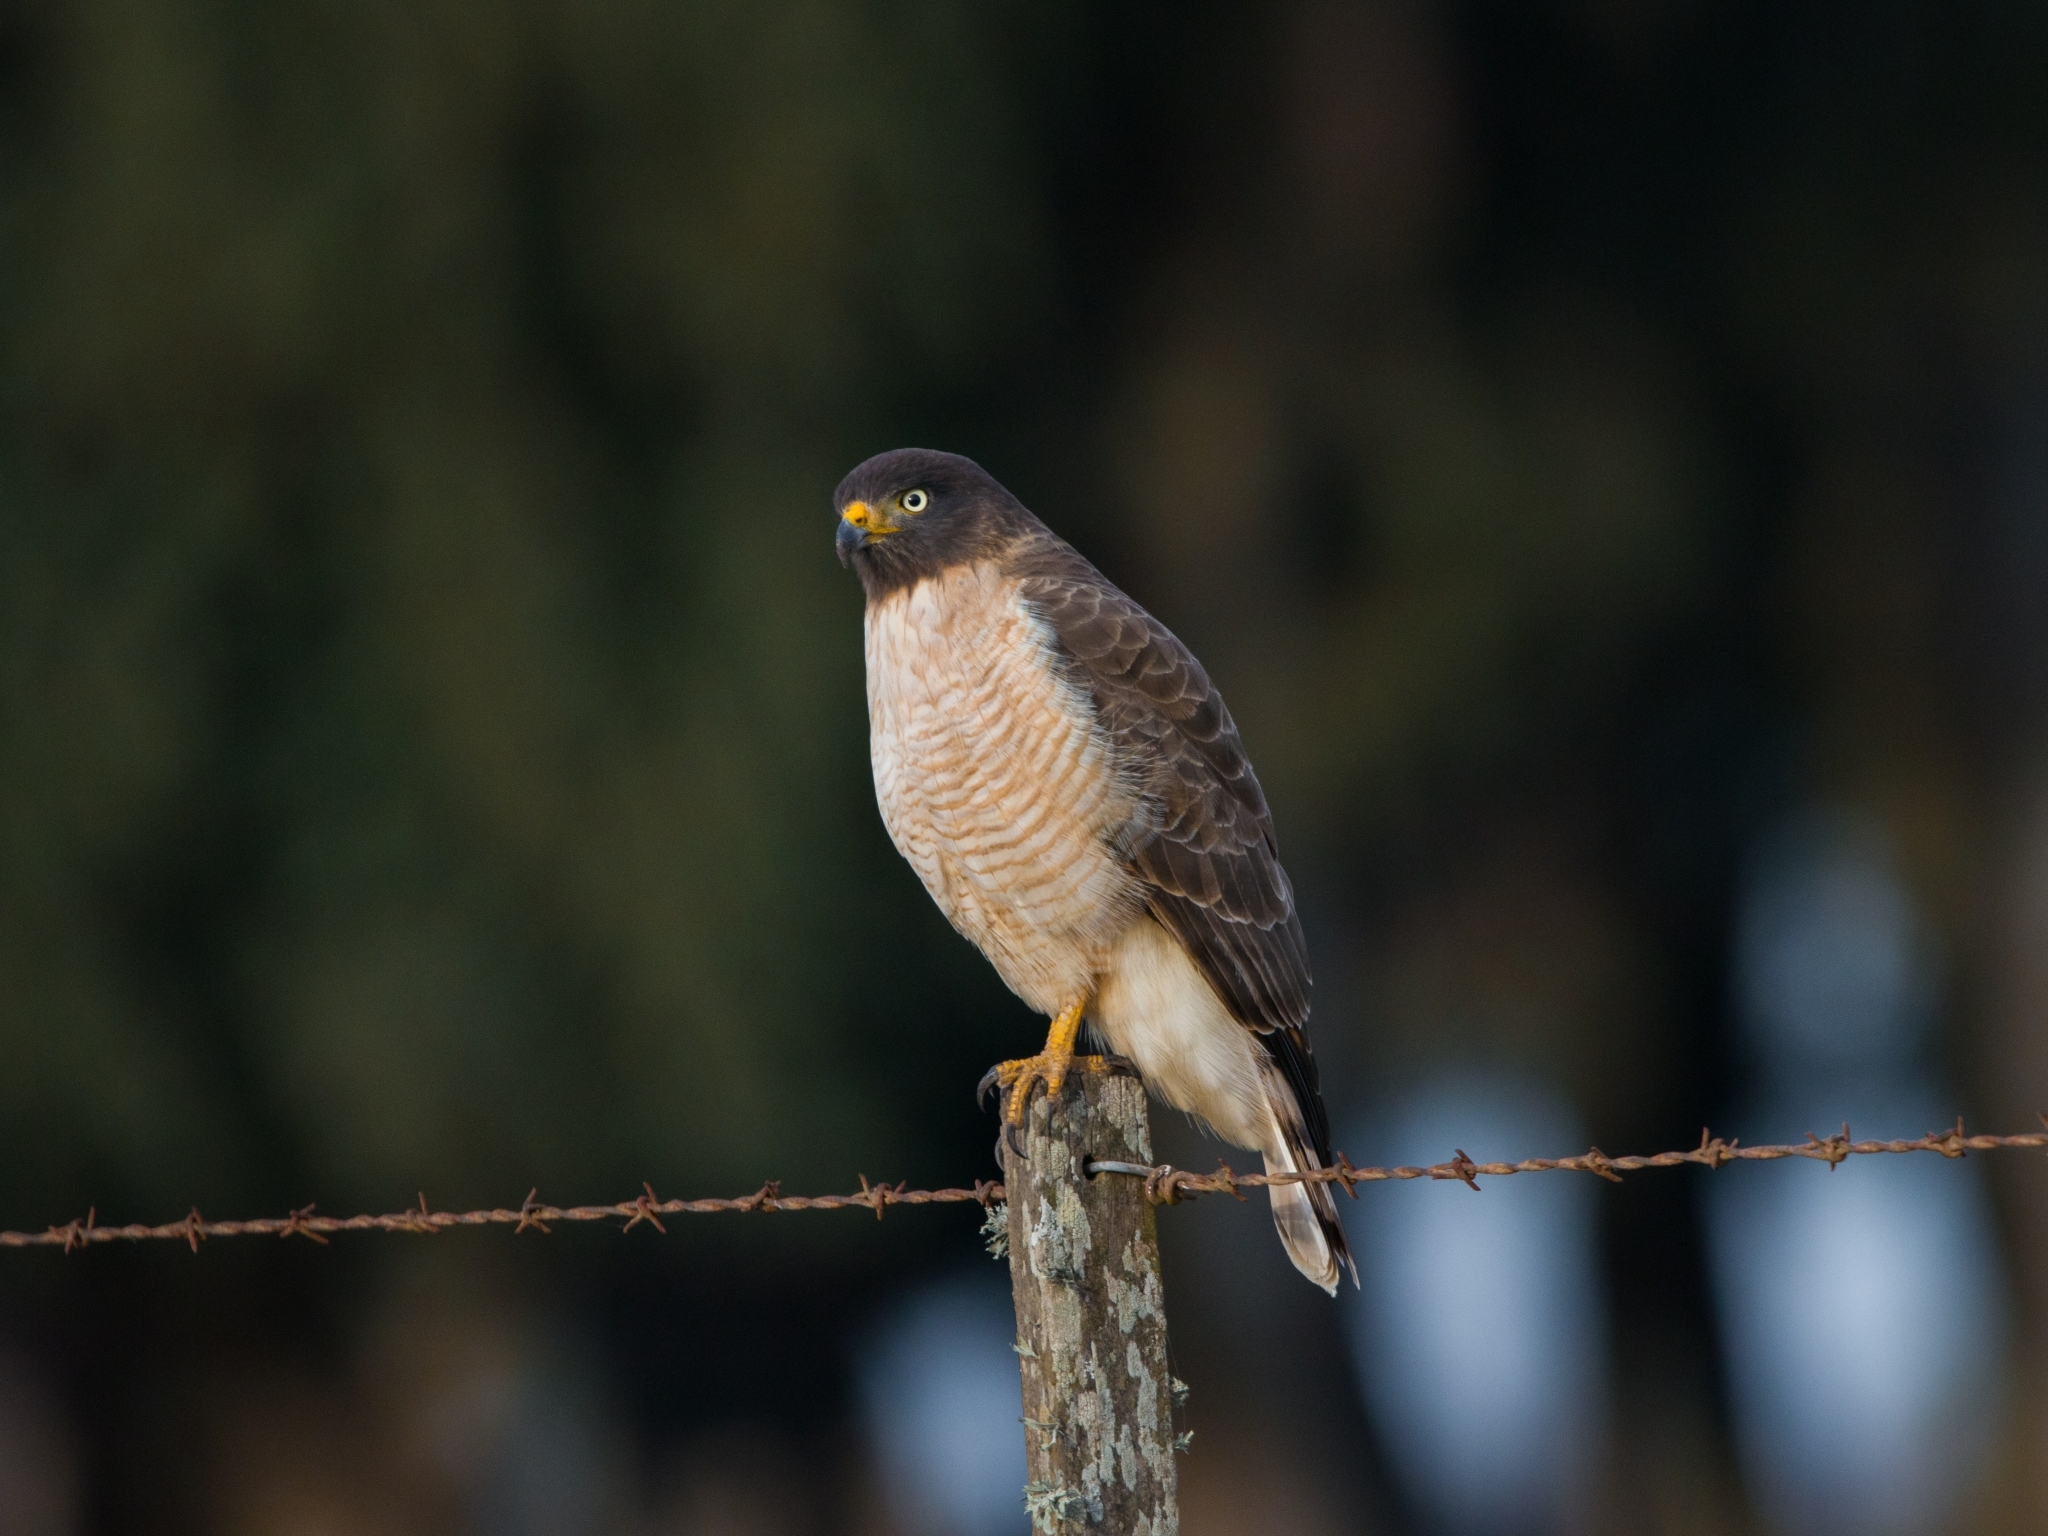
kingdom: Animalia
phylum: Chordata
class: Aves
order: Accipitriformes
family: Accipitridae
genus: Rupornis
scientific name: Rupornis magnirostris
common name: Roadside hawk
